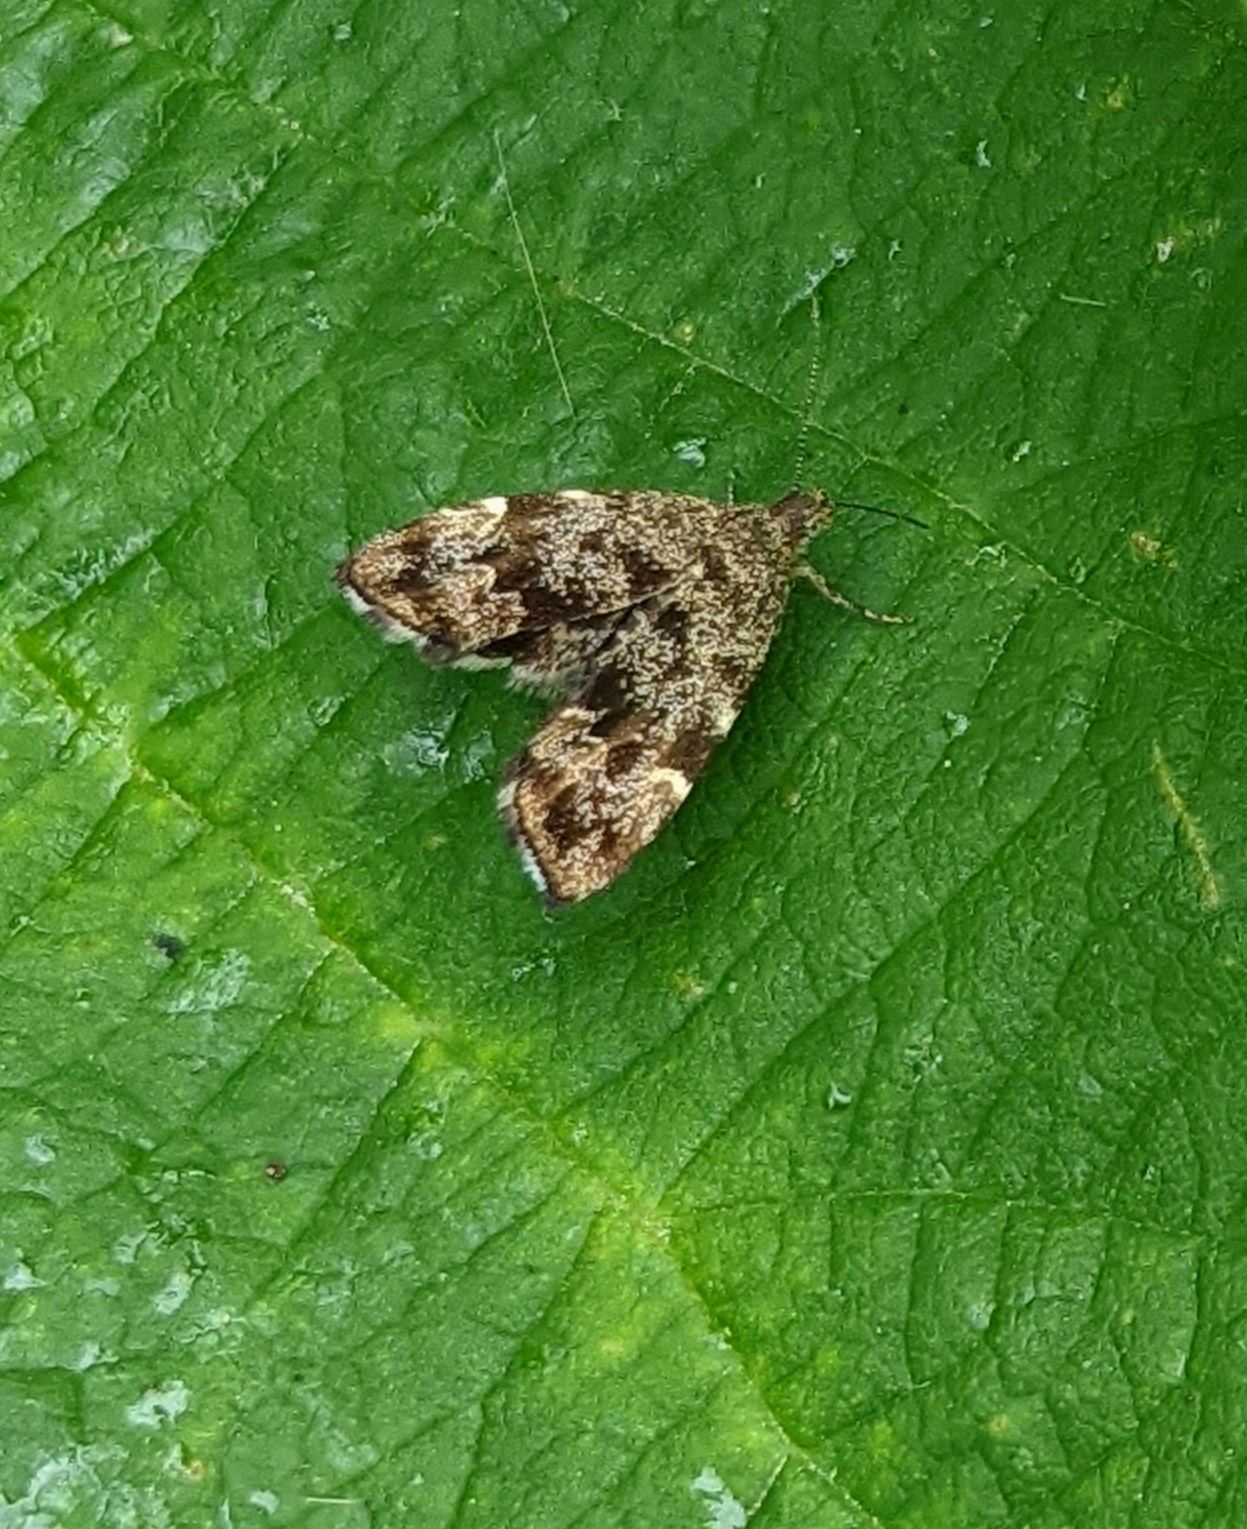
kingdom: Animalia
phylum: Arthropoda
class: Insecta
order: Lepidoptera
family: Choreutidae
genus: Anthophila
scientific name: Anthophila fabriciana
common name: Nettle-tap
